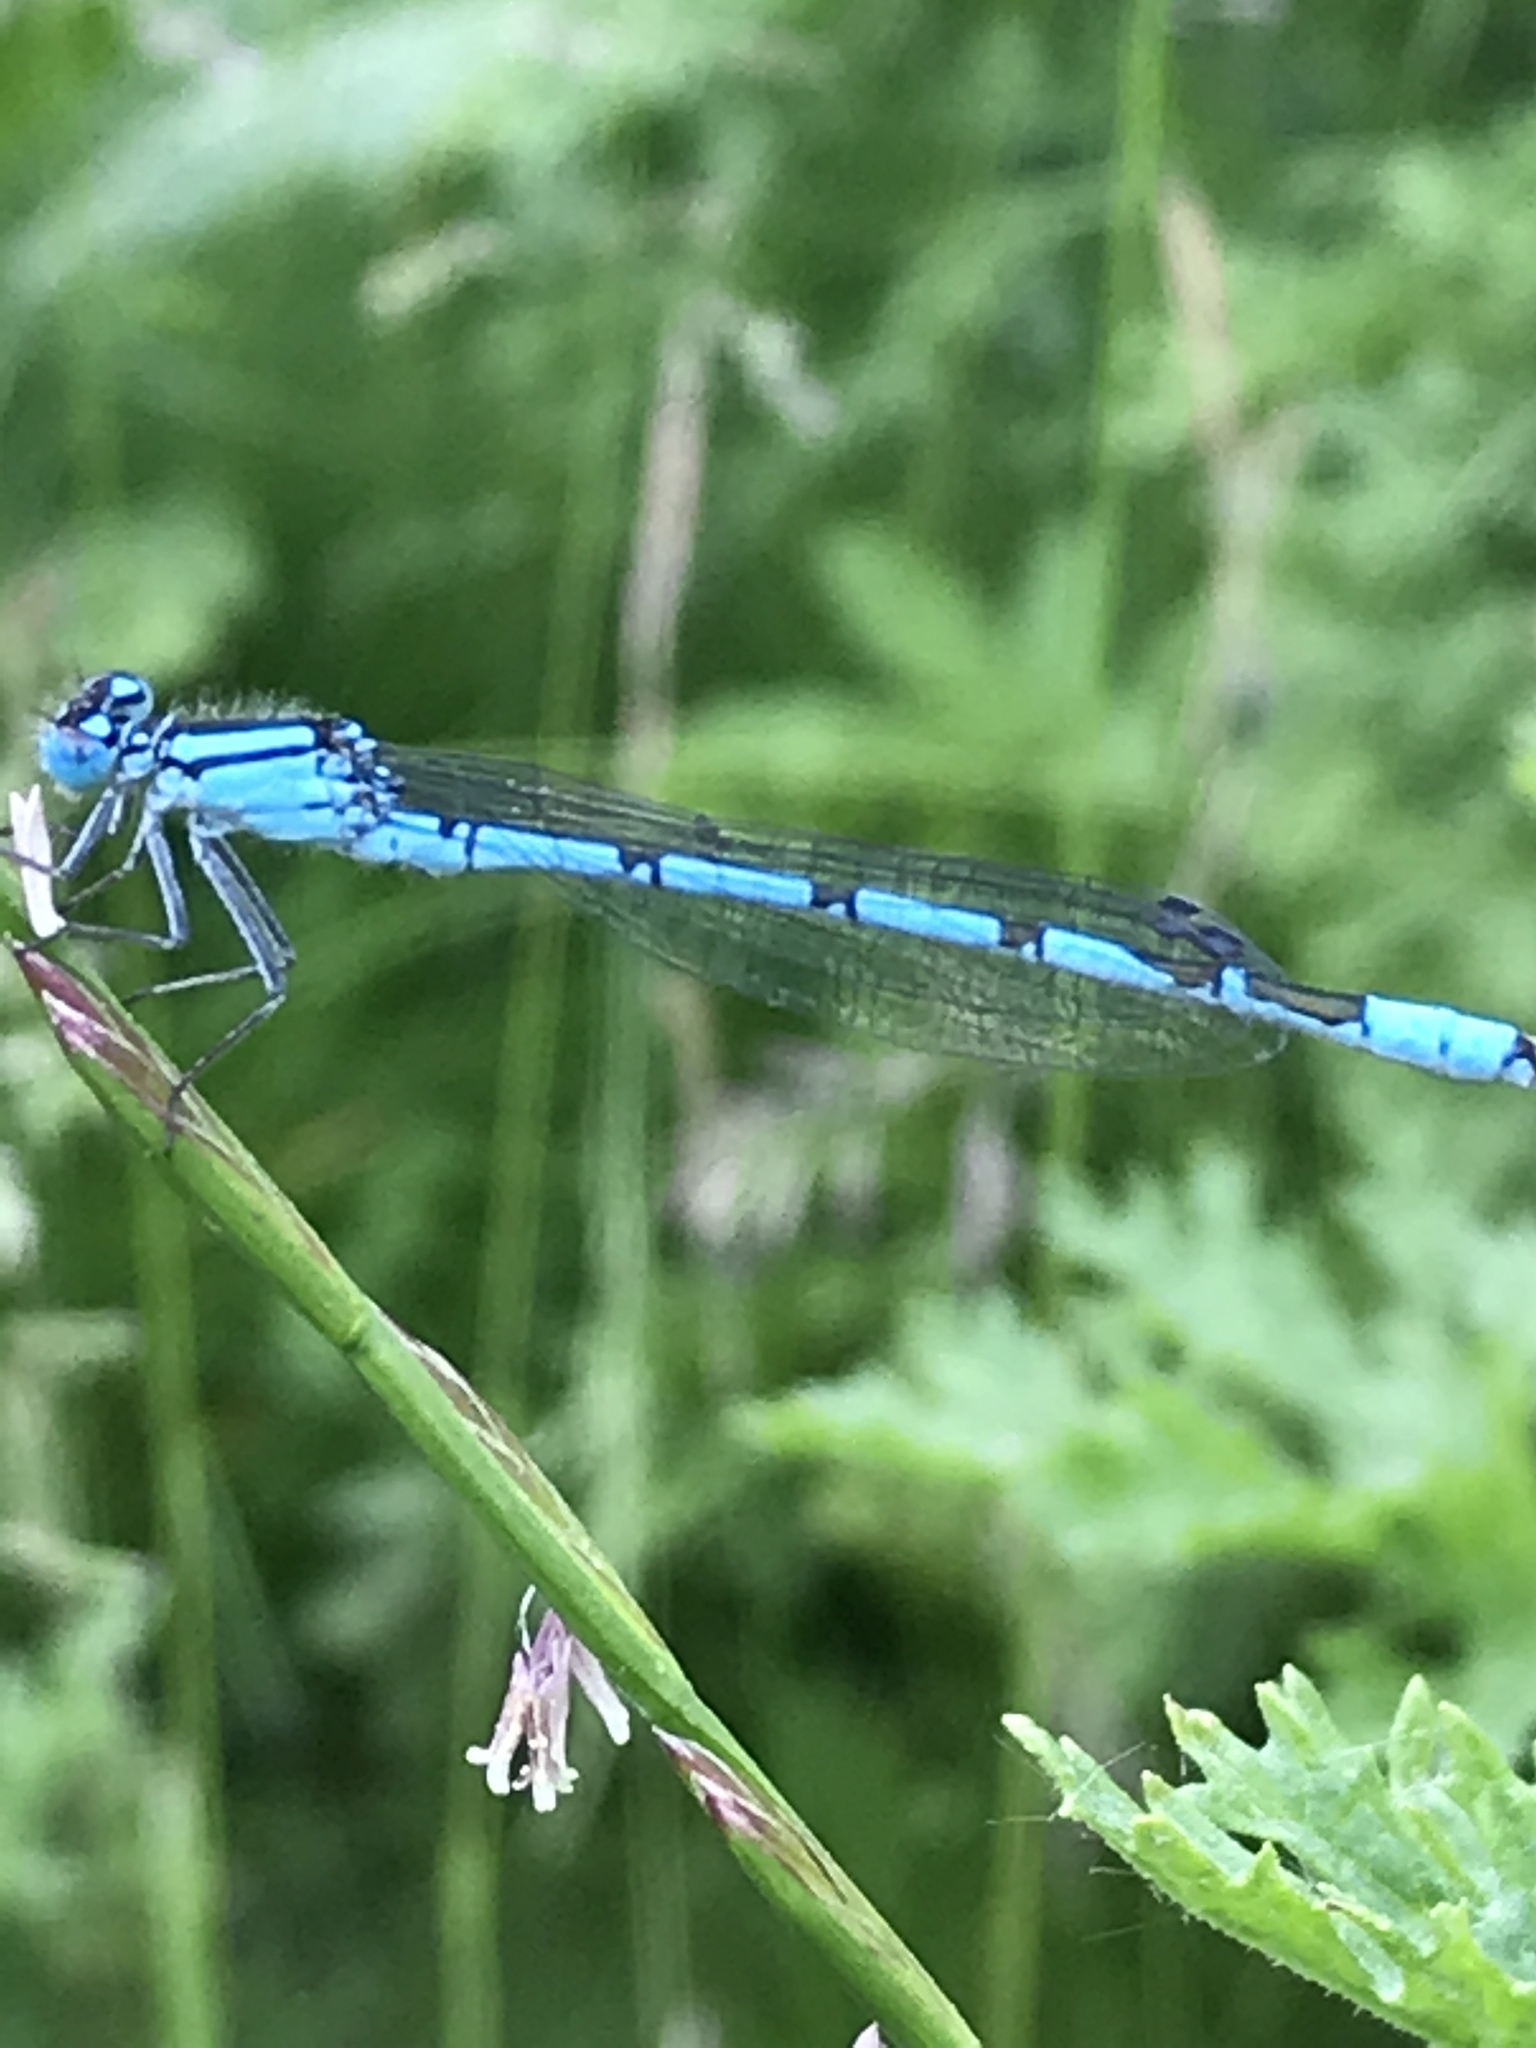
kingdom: Animalia
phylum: Arthropoda
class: Insecta
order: Odonata
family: Coenagrionidae
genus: Enallagma
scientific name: Enallagma cyathigerum
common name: Common blue damselfly
